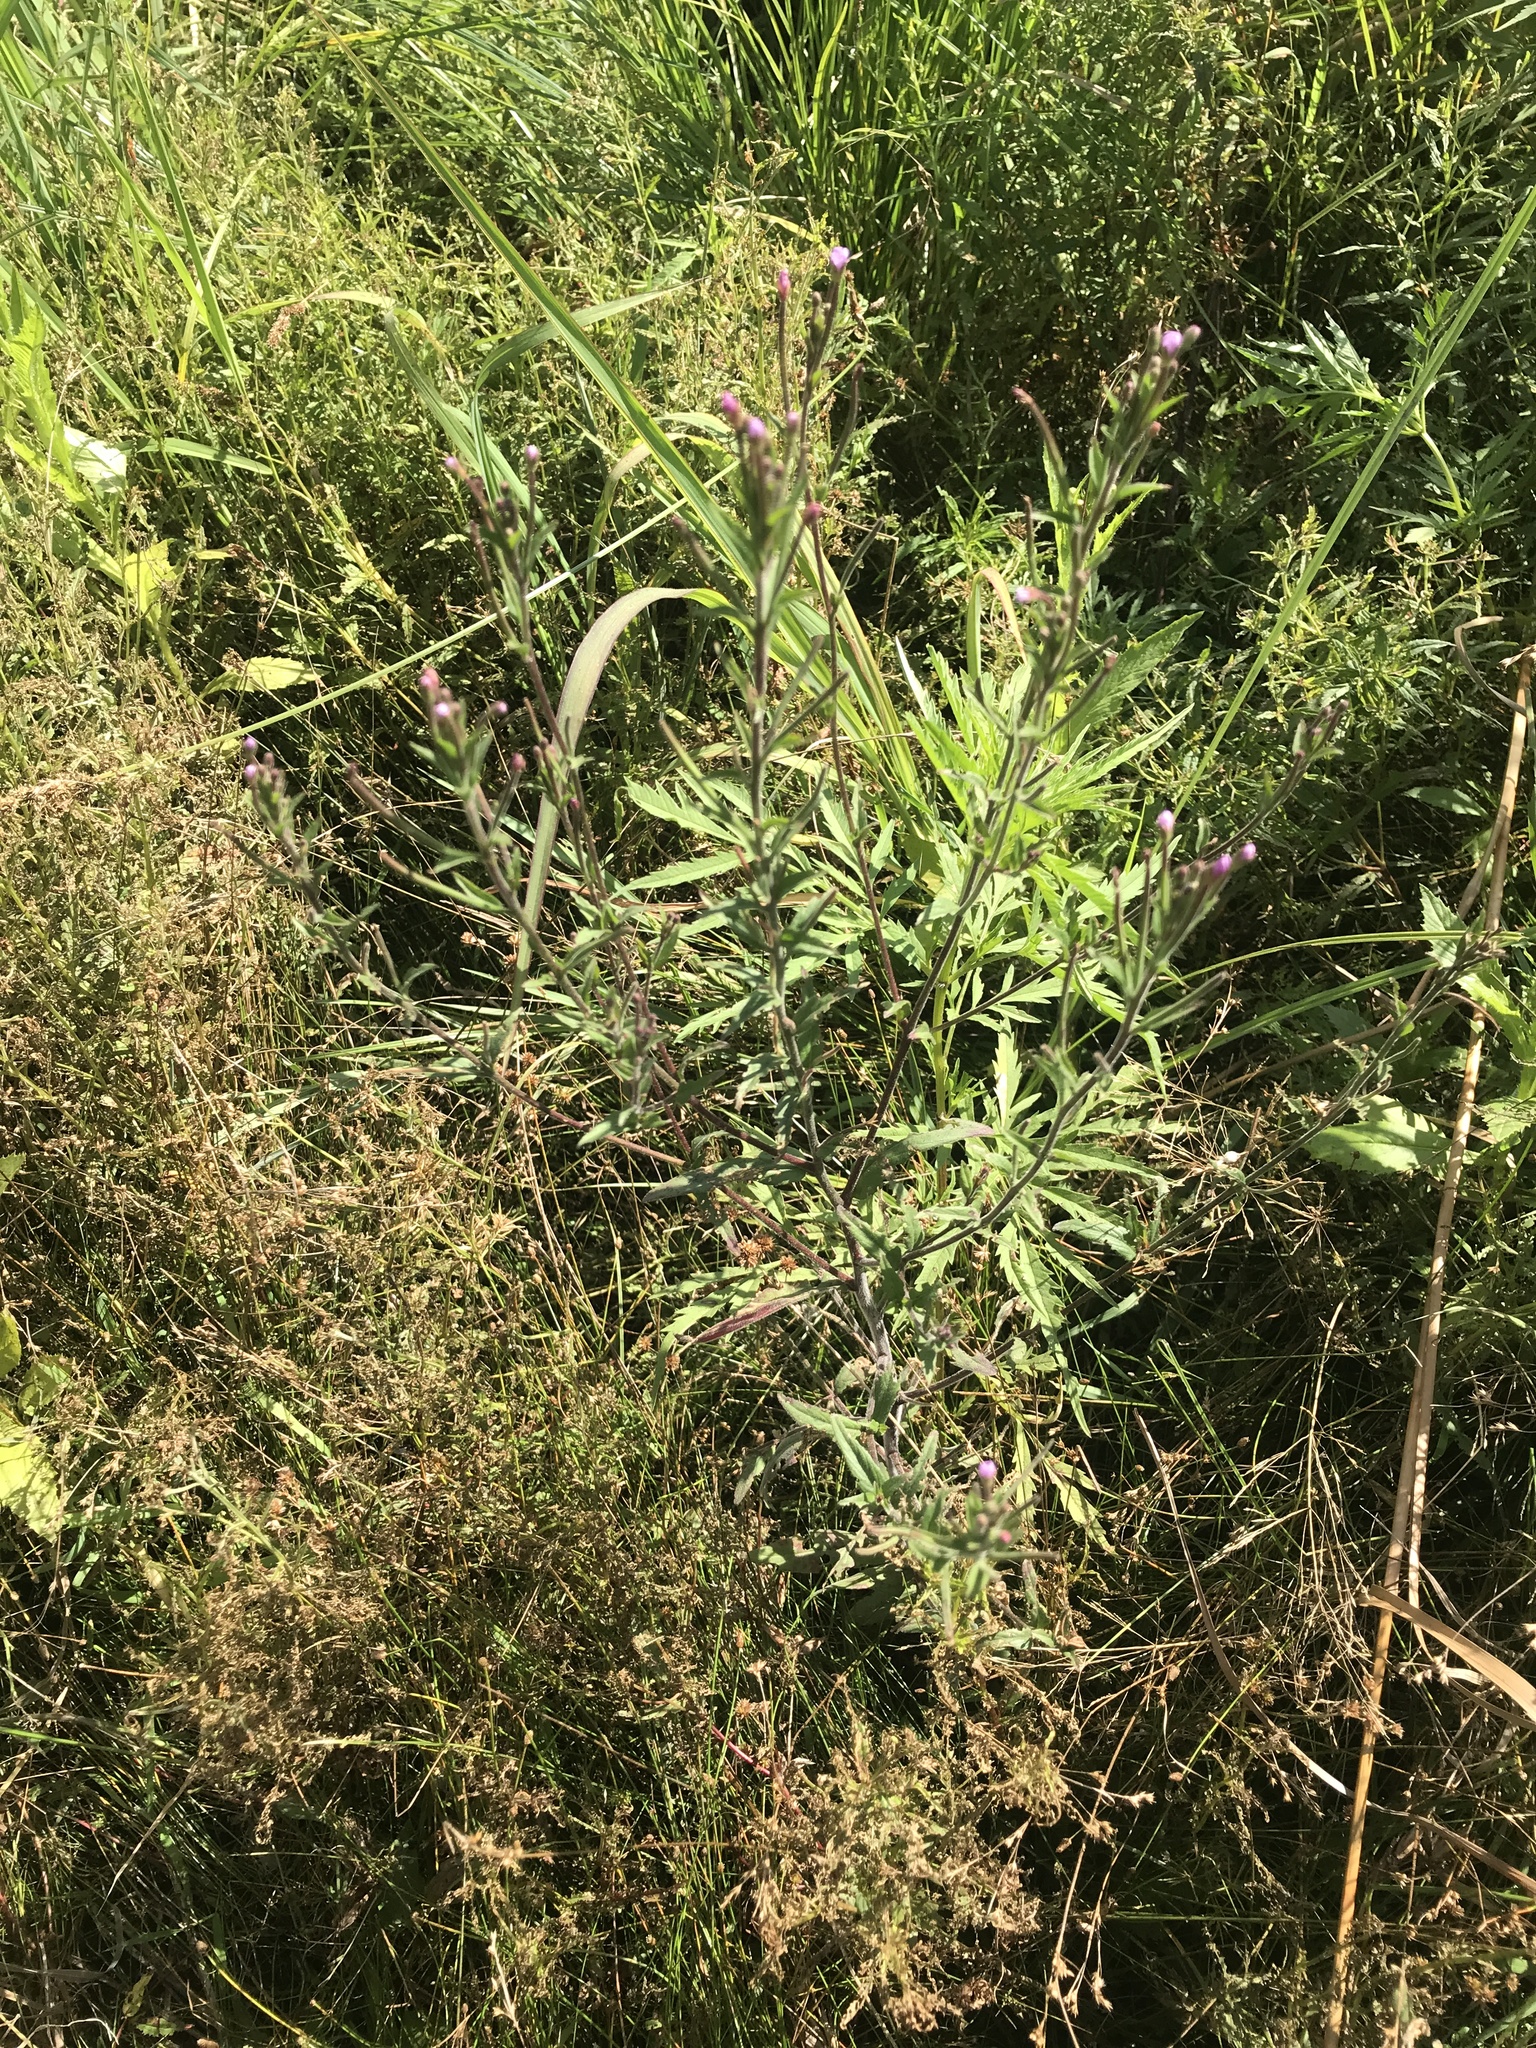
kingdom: Plantae
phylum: Tracheophyta
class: Magnoliopsida
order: Myrtales
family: Onagraceae
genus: Epilobium
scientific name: Epilobium parviflorum
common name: Hoary willowherb
